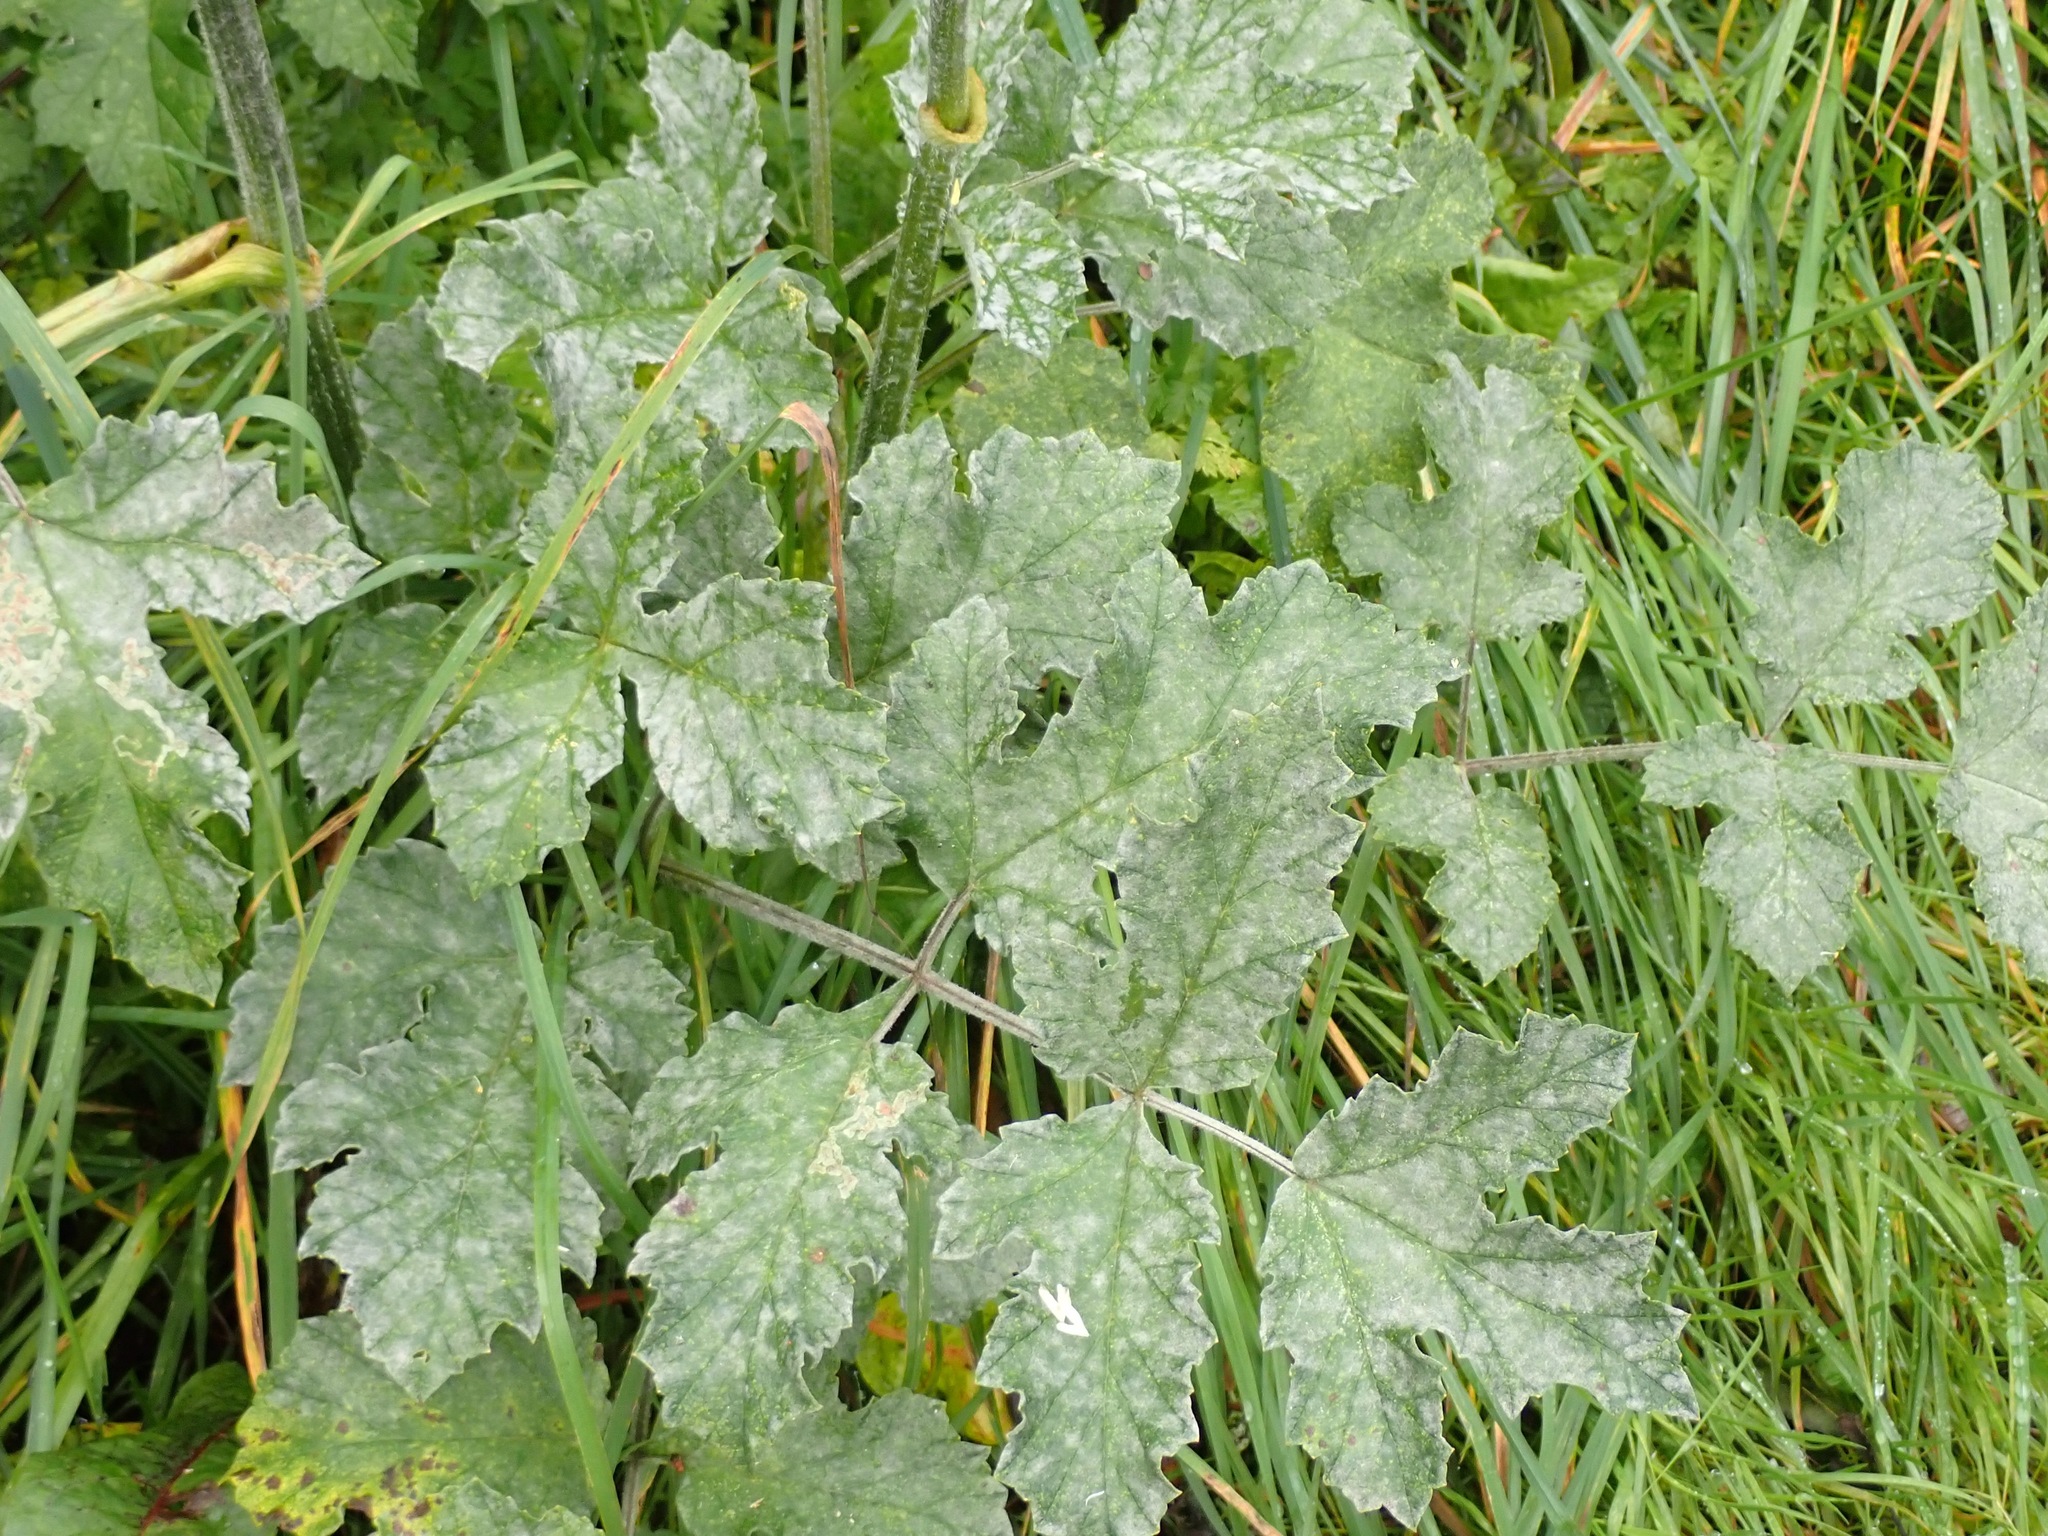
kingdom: Plantae
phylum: Tracheophyta
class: Magnoliopsida
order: Apiales
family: Apiaceae
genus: Heracleum
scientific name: Heracleum sphondylium
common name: Hogweed
